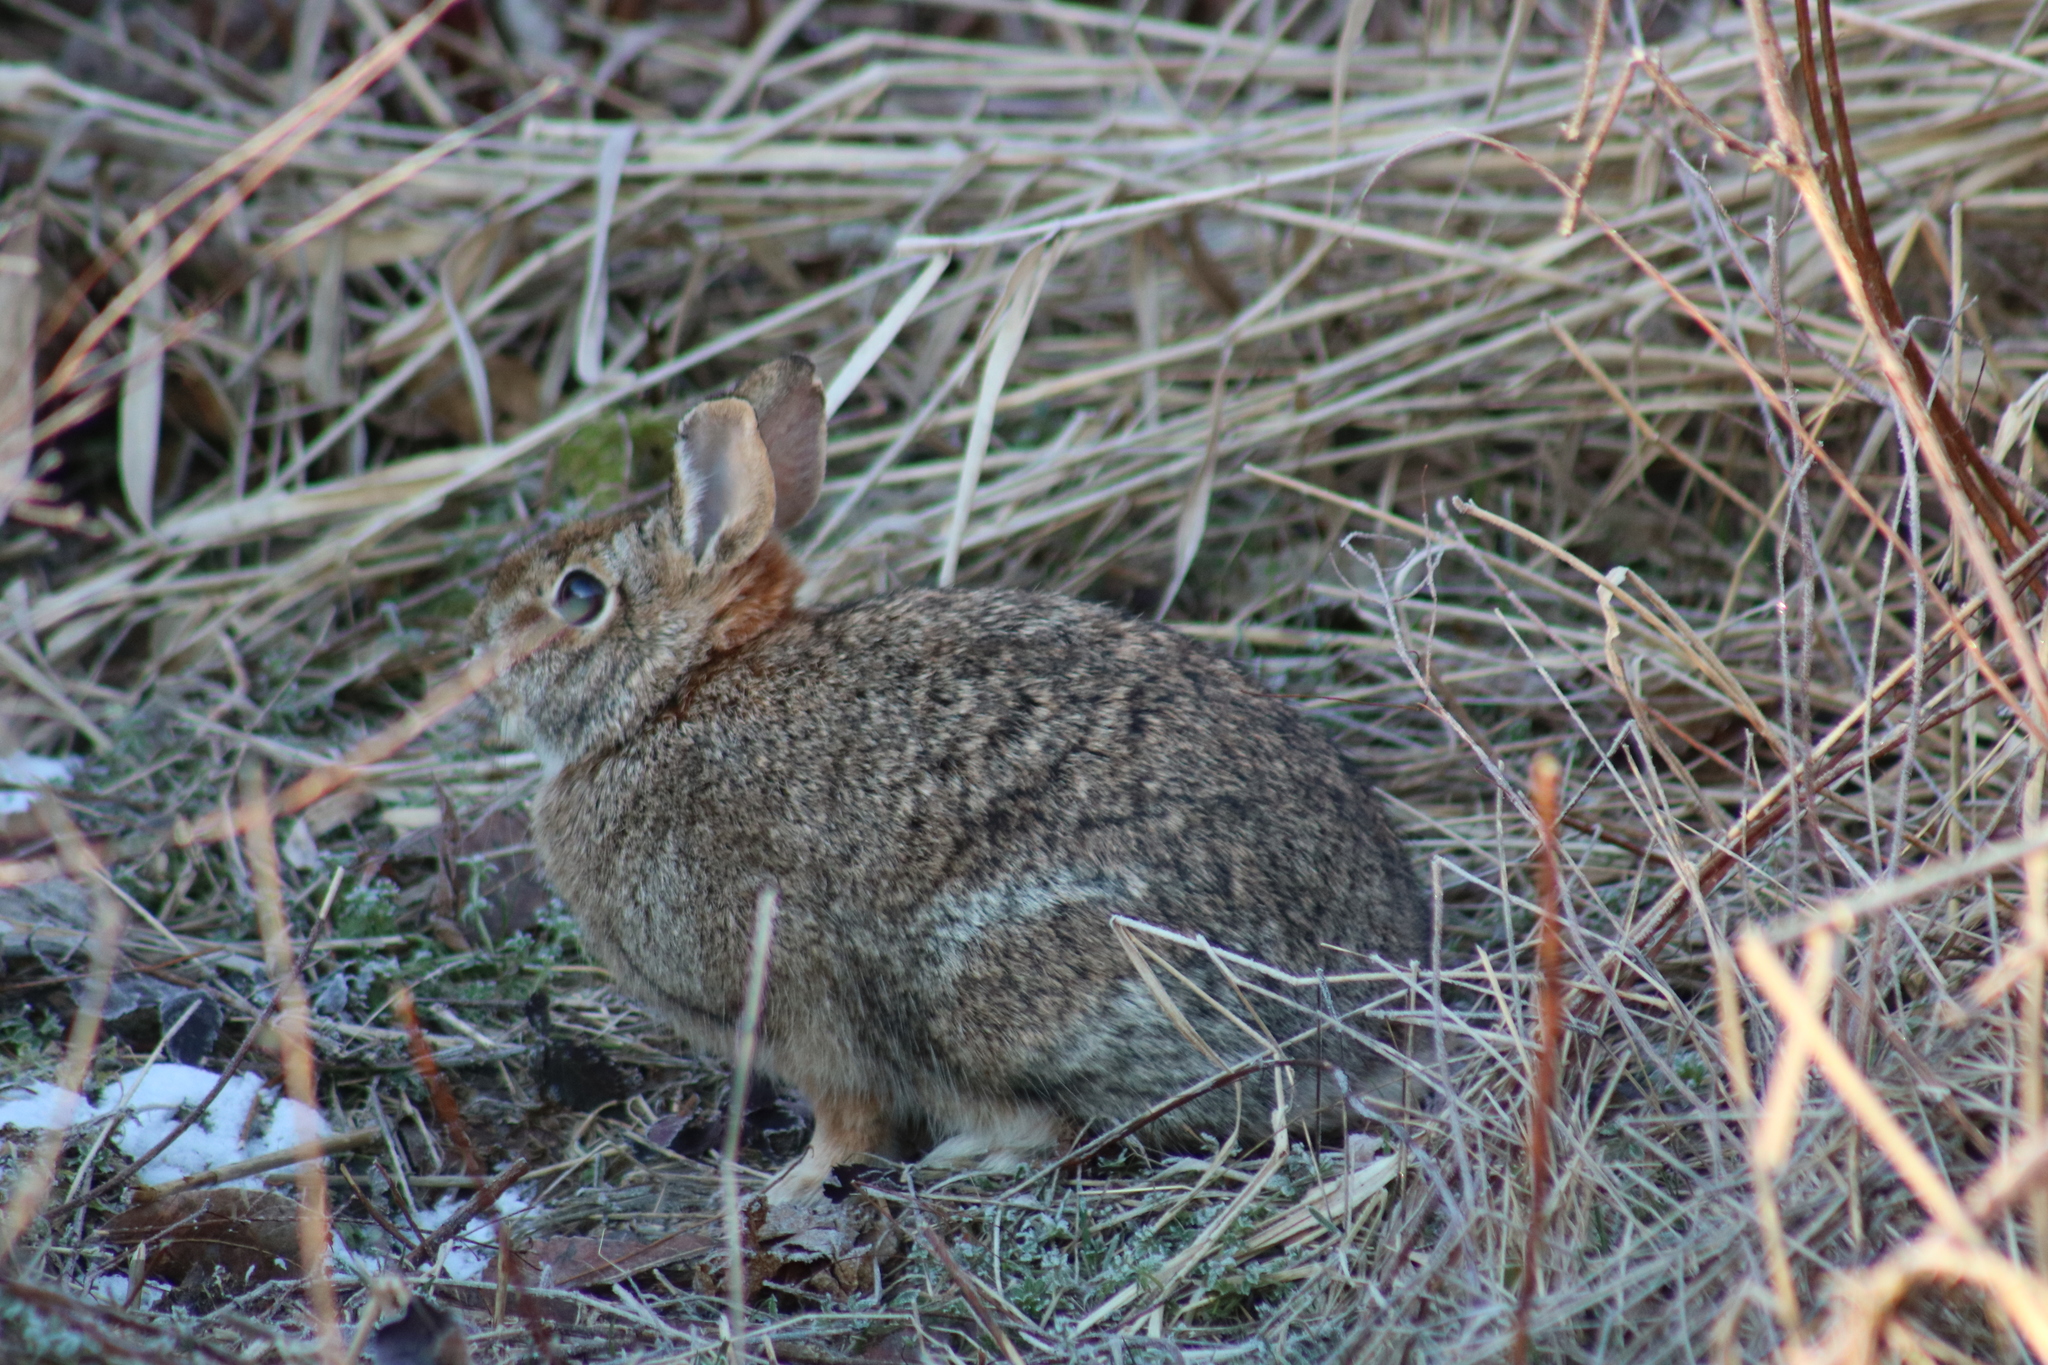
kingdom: Animalia
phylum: Chordata
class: Mammalia
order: Lagomorpha
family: Leporidae
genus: Sylvilagus
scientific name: Sylvilagus floridanus
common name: Eastern cottontail
